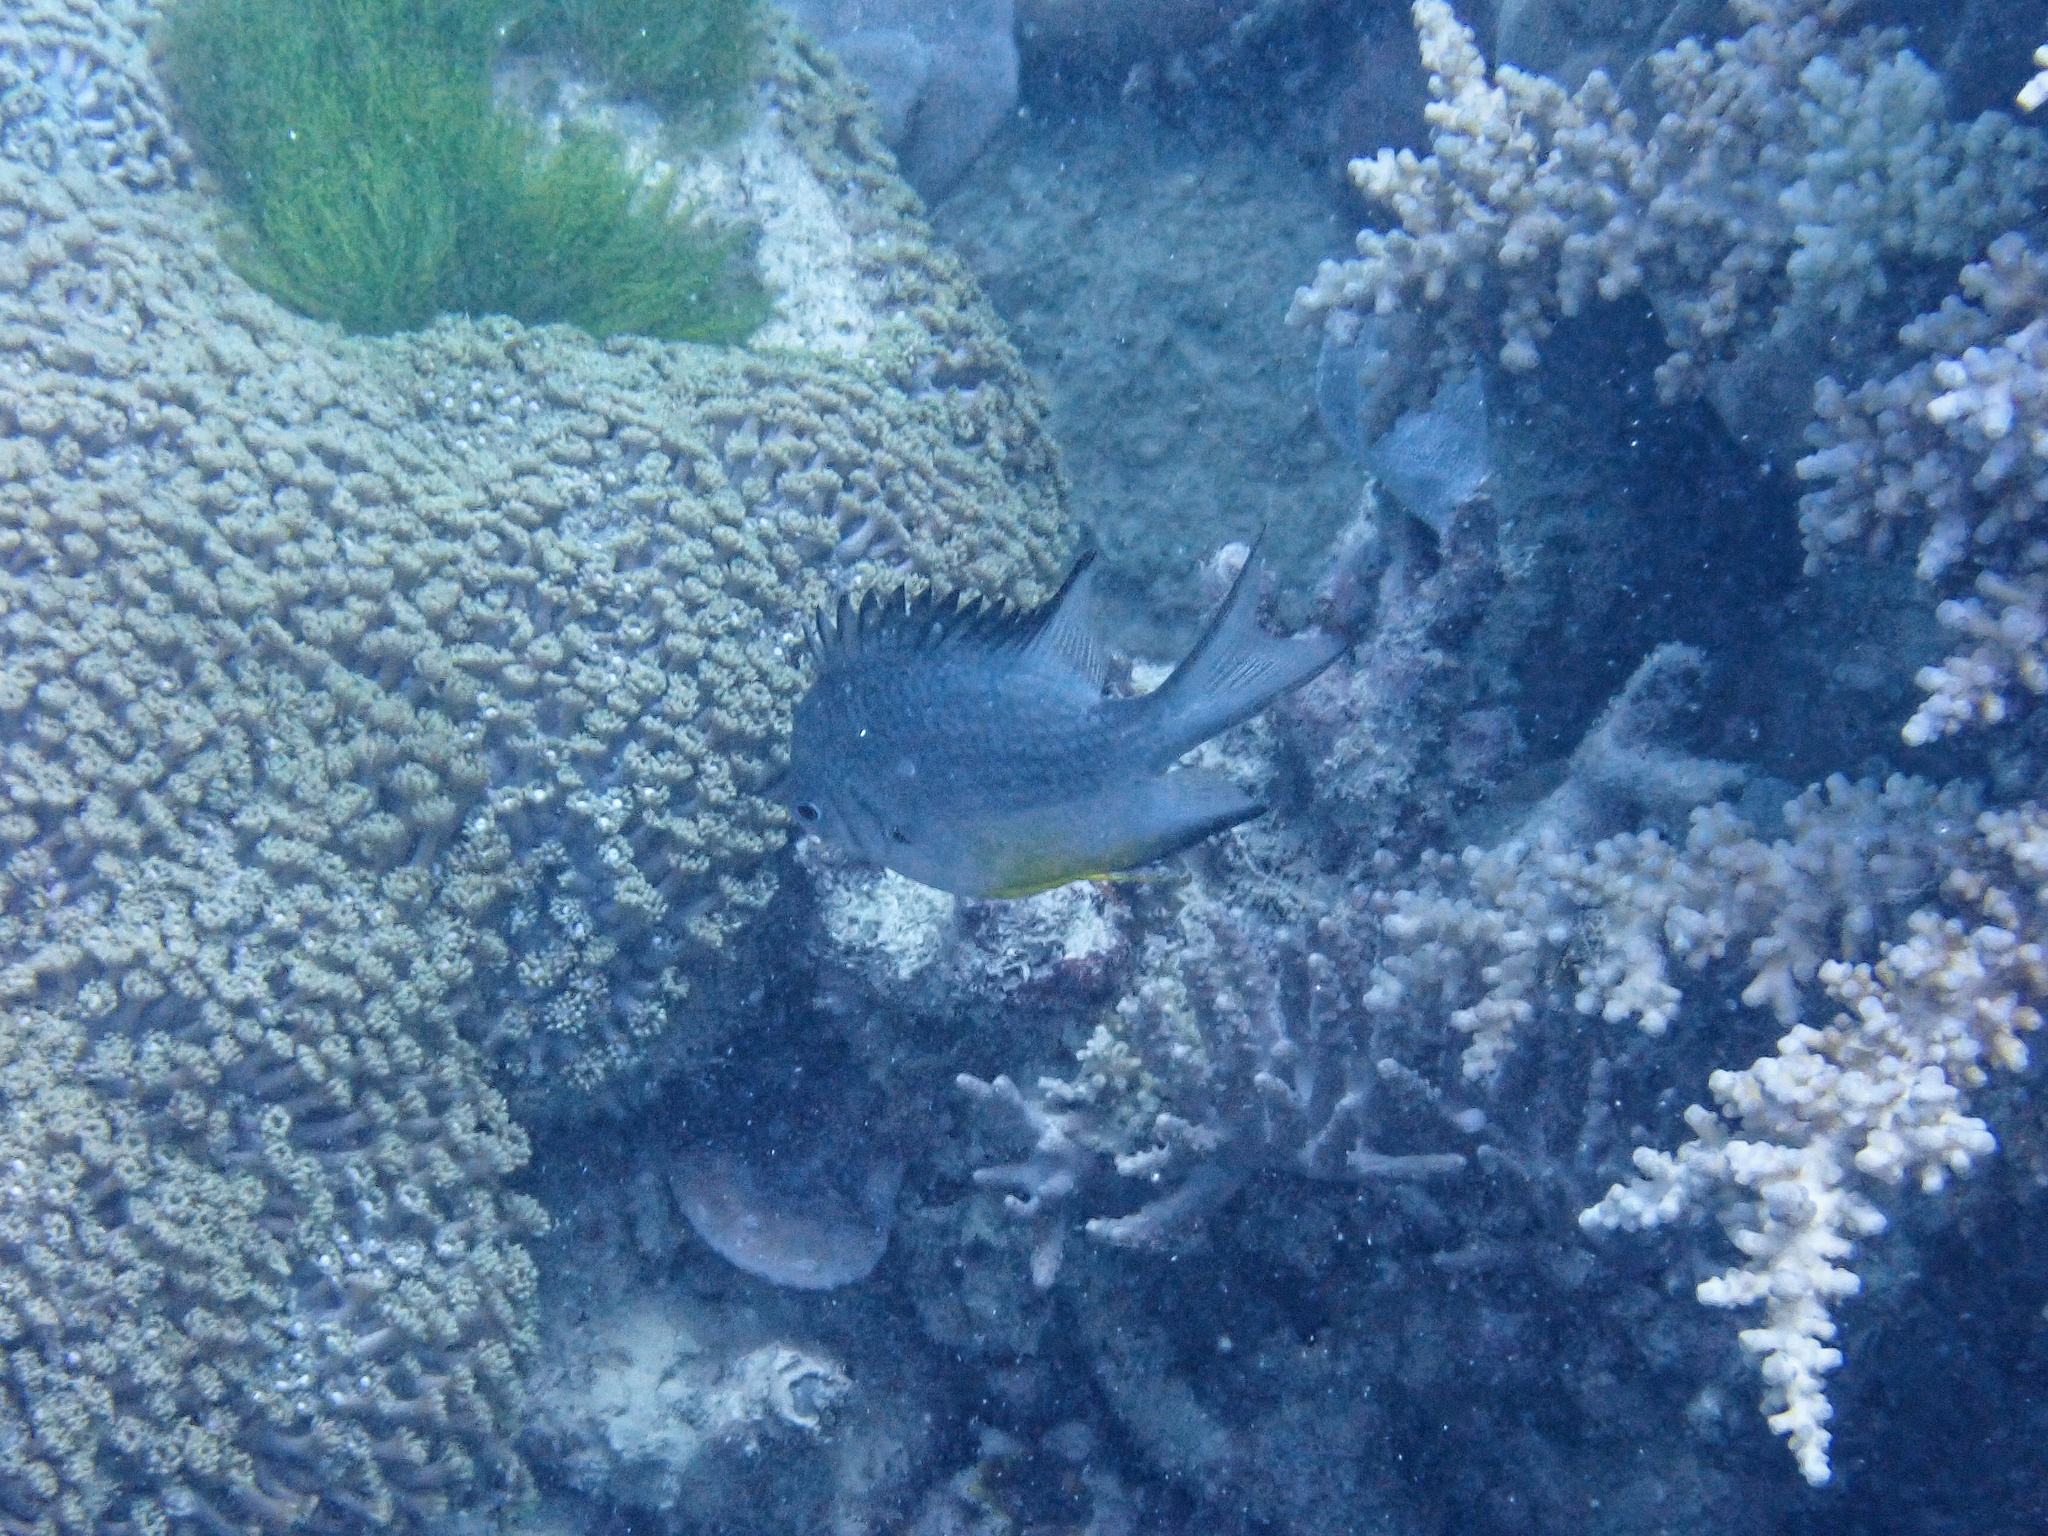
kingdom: Animalia
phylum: Chordata
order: Perciformes
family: Pomacentridae
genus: Amblyglyphidodon
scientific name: Amblyglyphidodon leucogaster
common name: White-belly damsel
